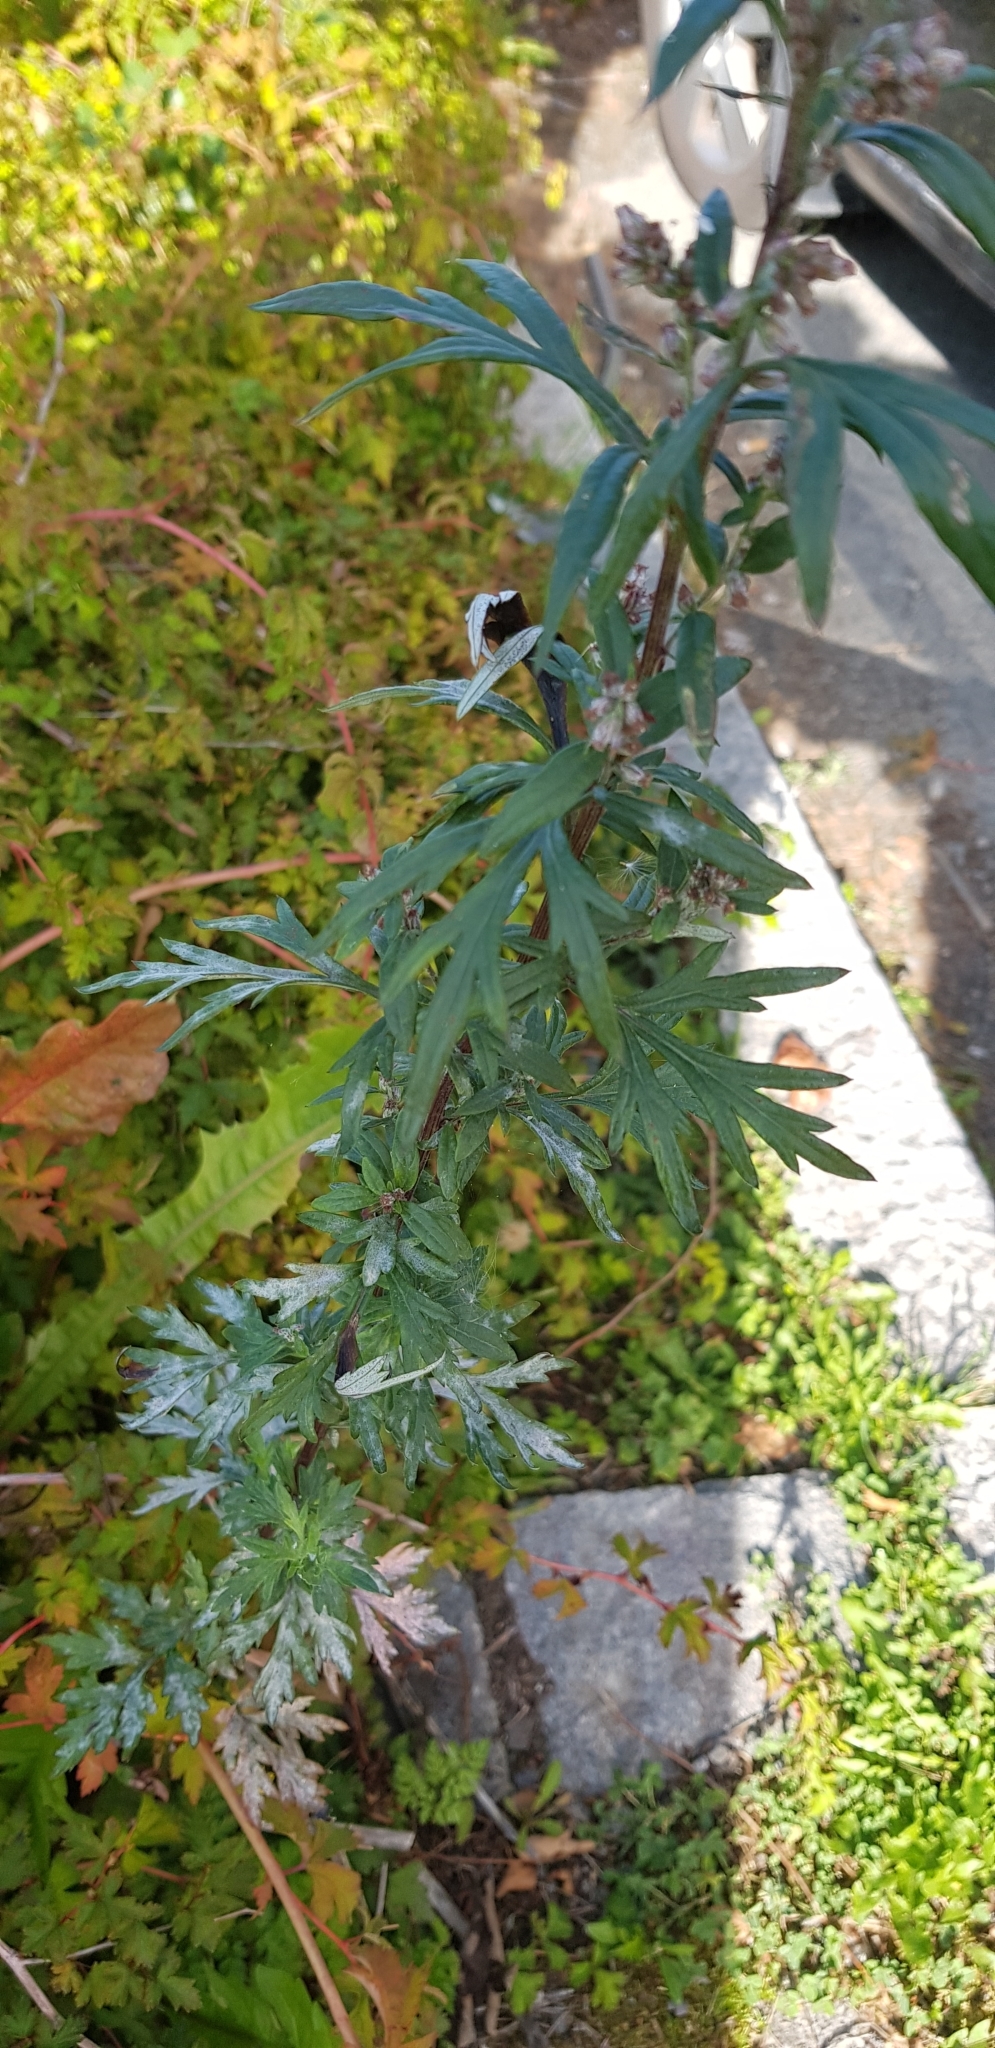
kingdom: Plantae
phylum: Tracheophyta
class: Magnoliopsida
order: Asterales
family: Asteraceae
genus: Artemisia
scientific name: Artemisia vulgaris
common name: Mugwort
